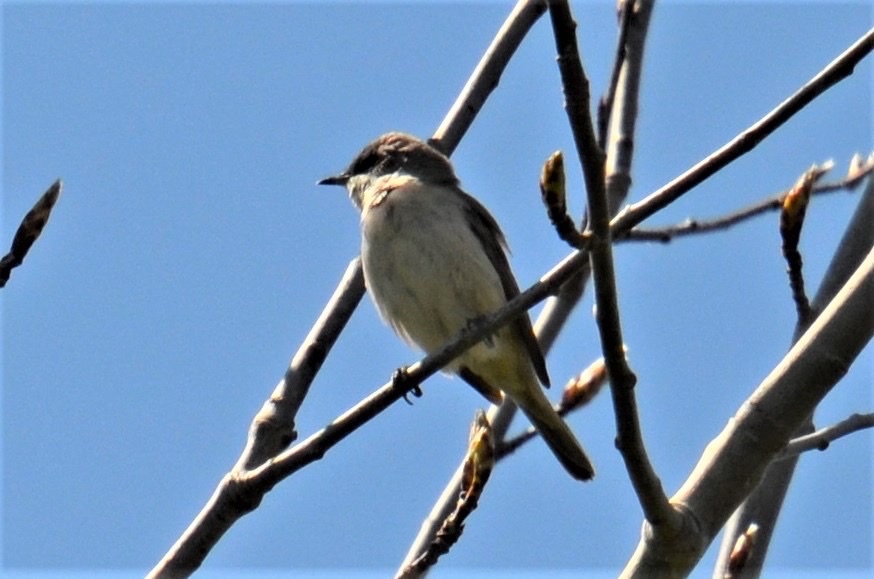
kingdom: Animalia
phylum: Chordata
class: Aves
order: Passeriformes
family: Sylviidae
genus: Sylvia
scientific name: Sylvia curruca
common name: Lesser whitethroat
